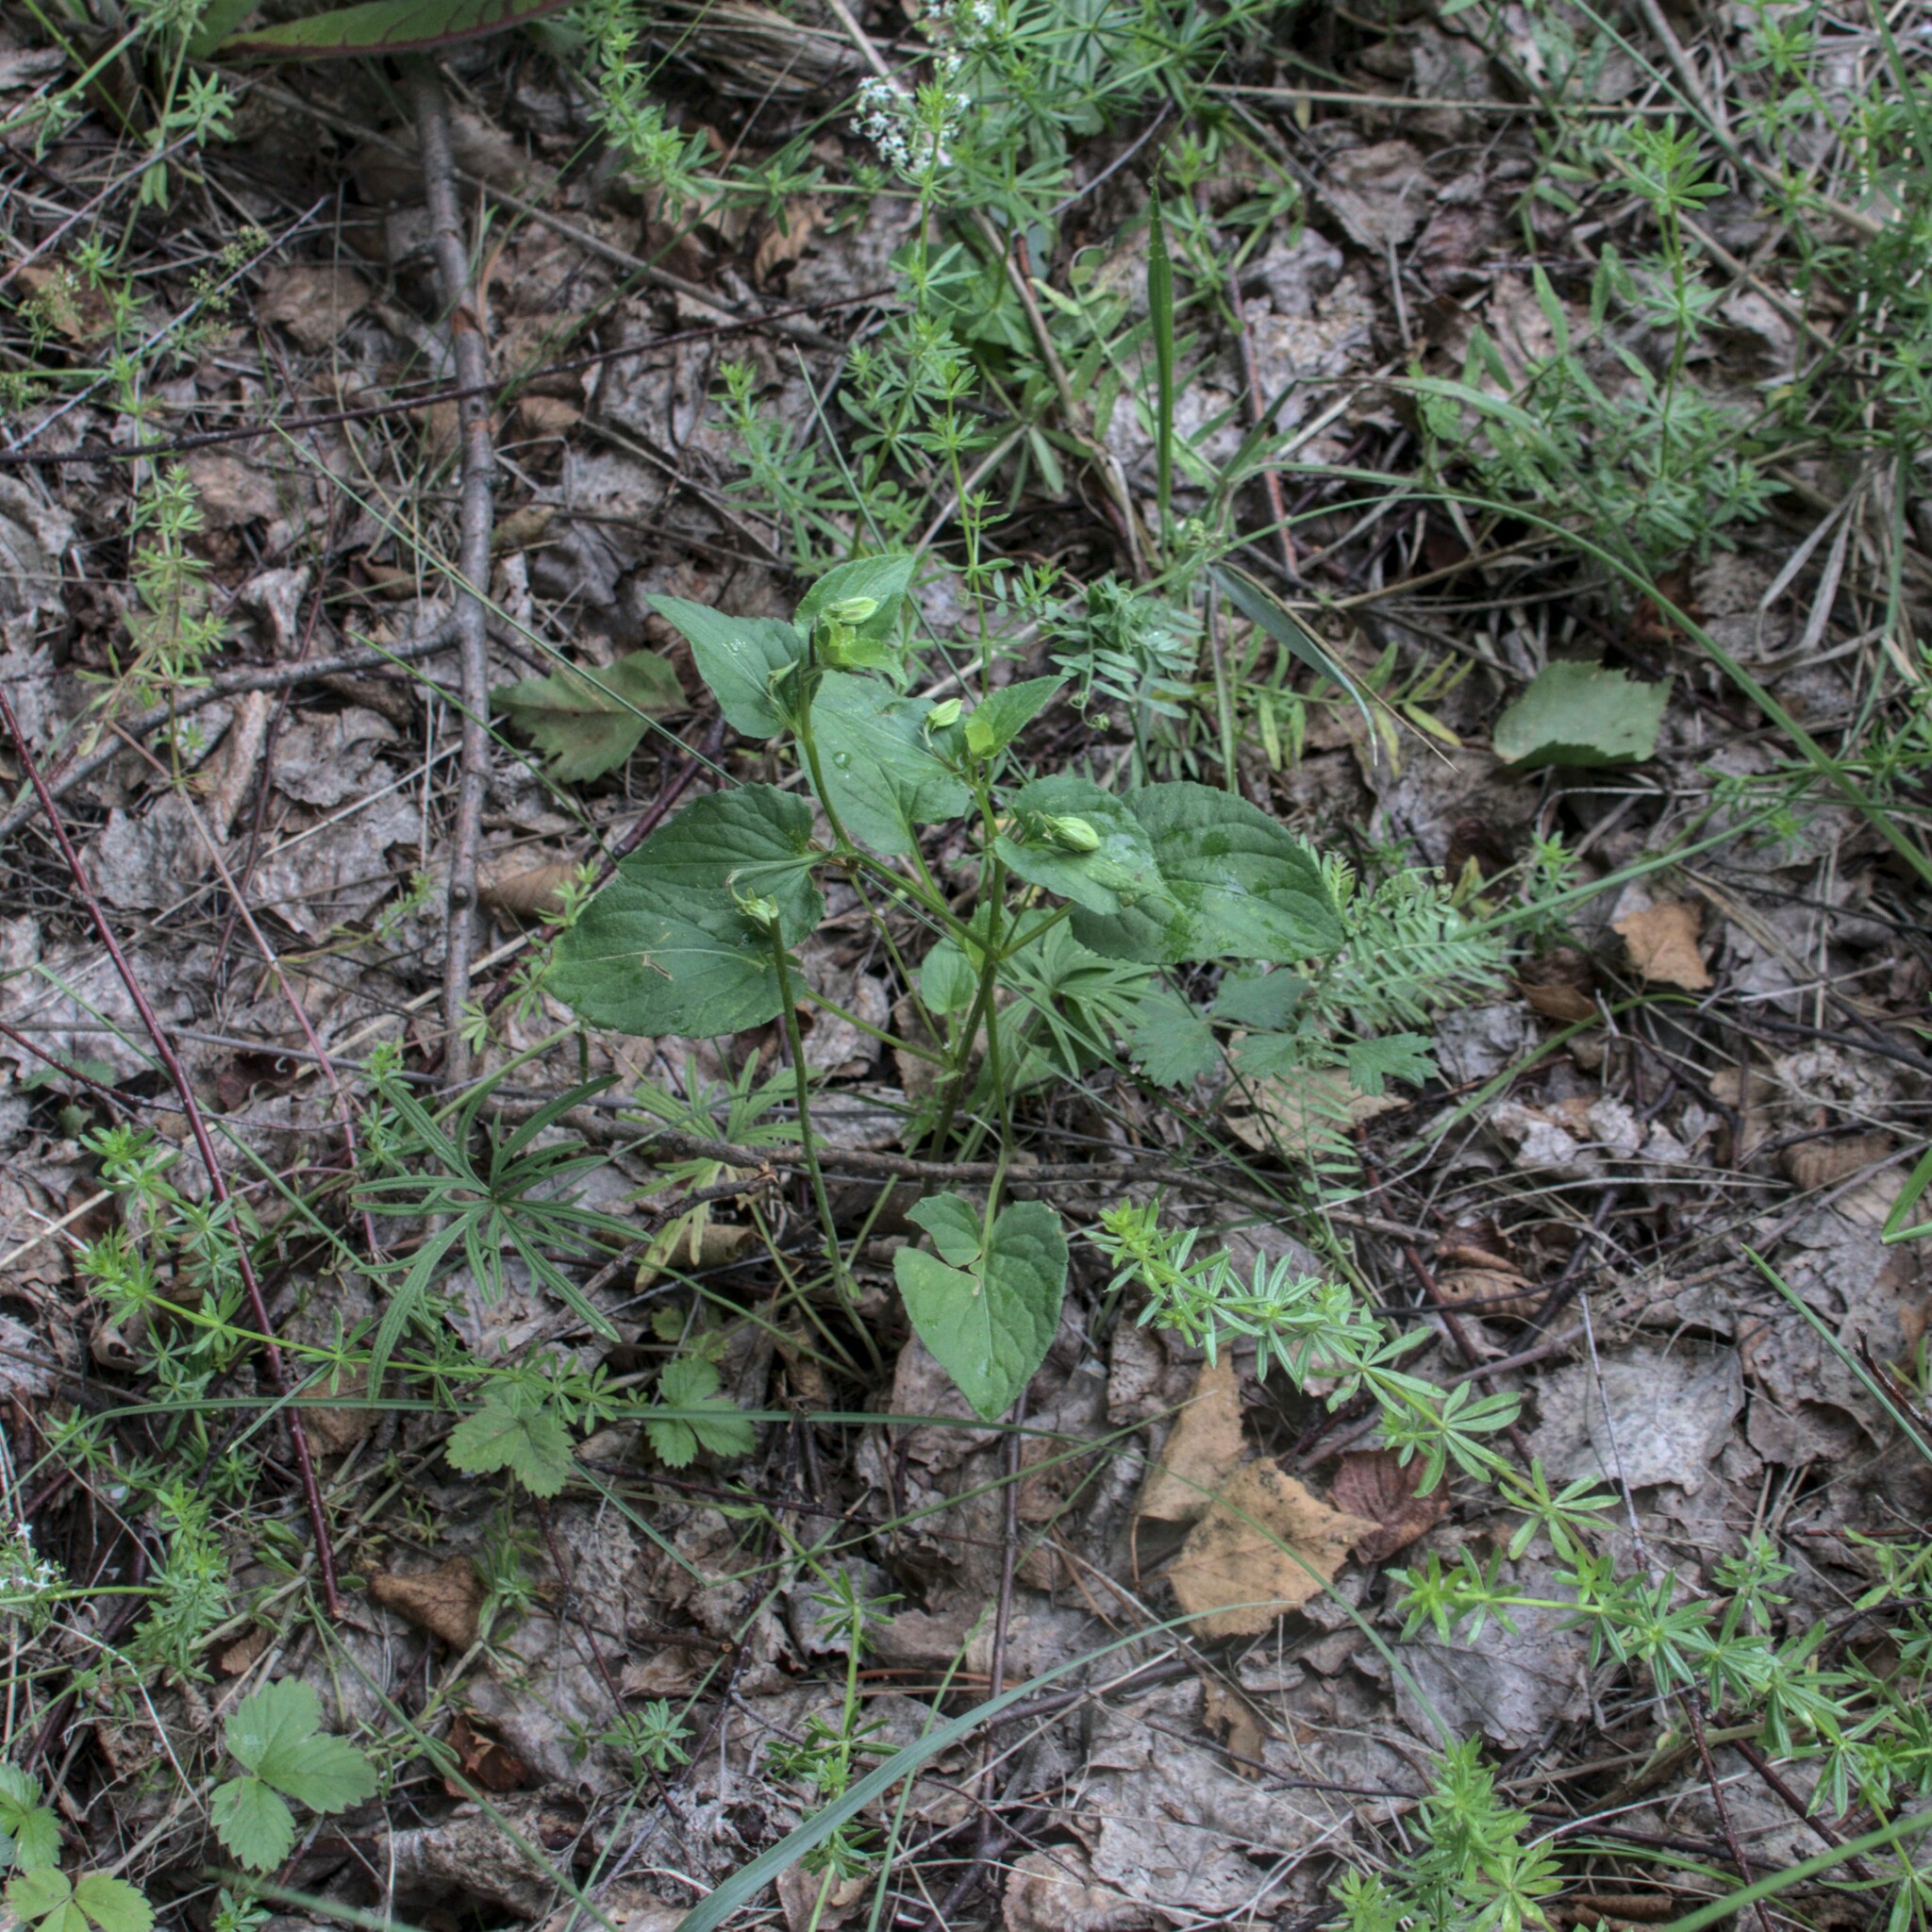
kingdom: Plantae
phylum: Tracheophyta
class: Magnoliopsida
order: Malpighiales
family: Violaceae
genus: Viola
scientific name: Viola
